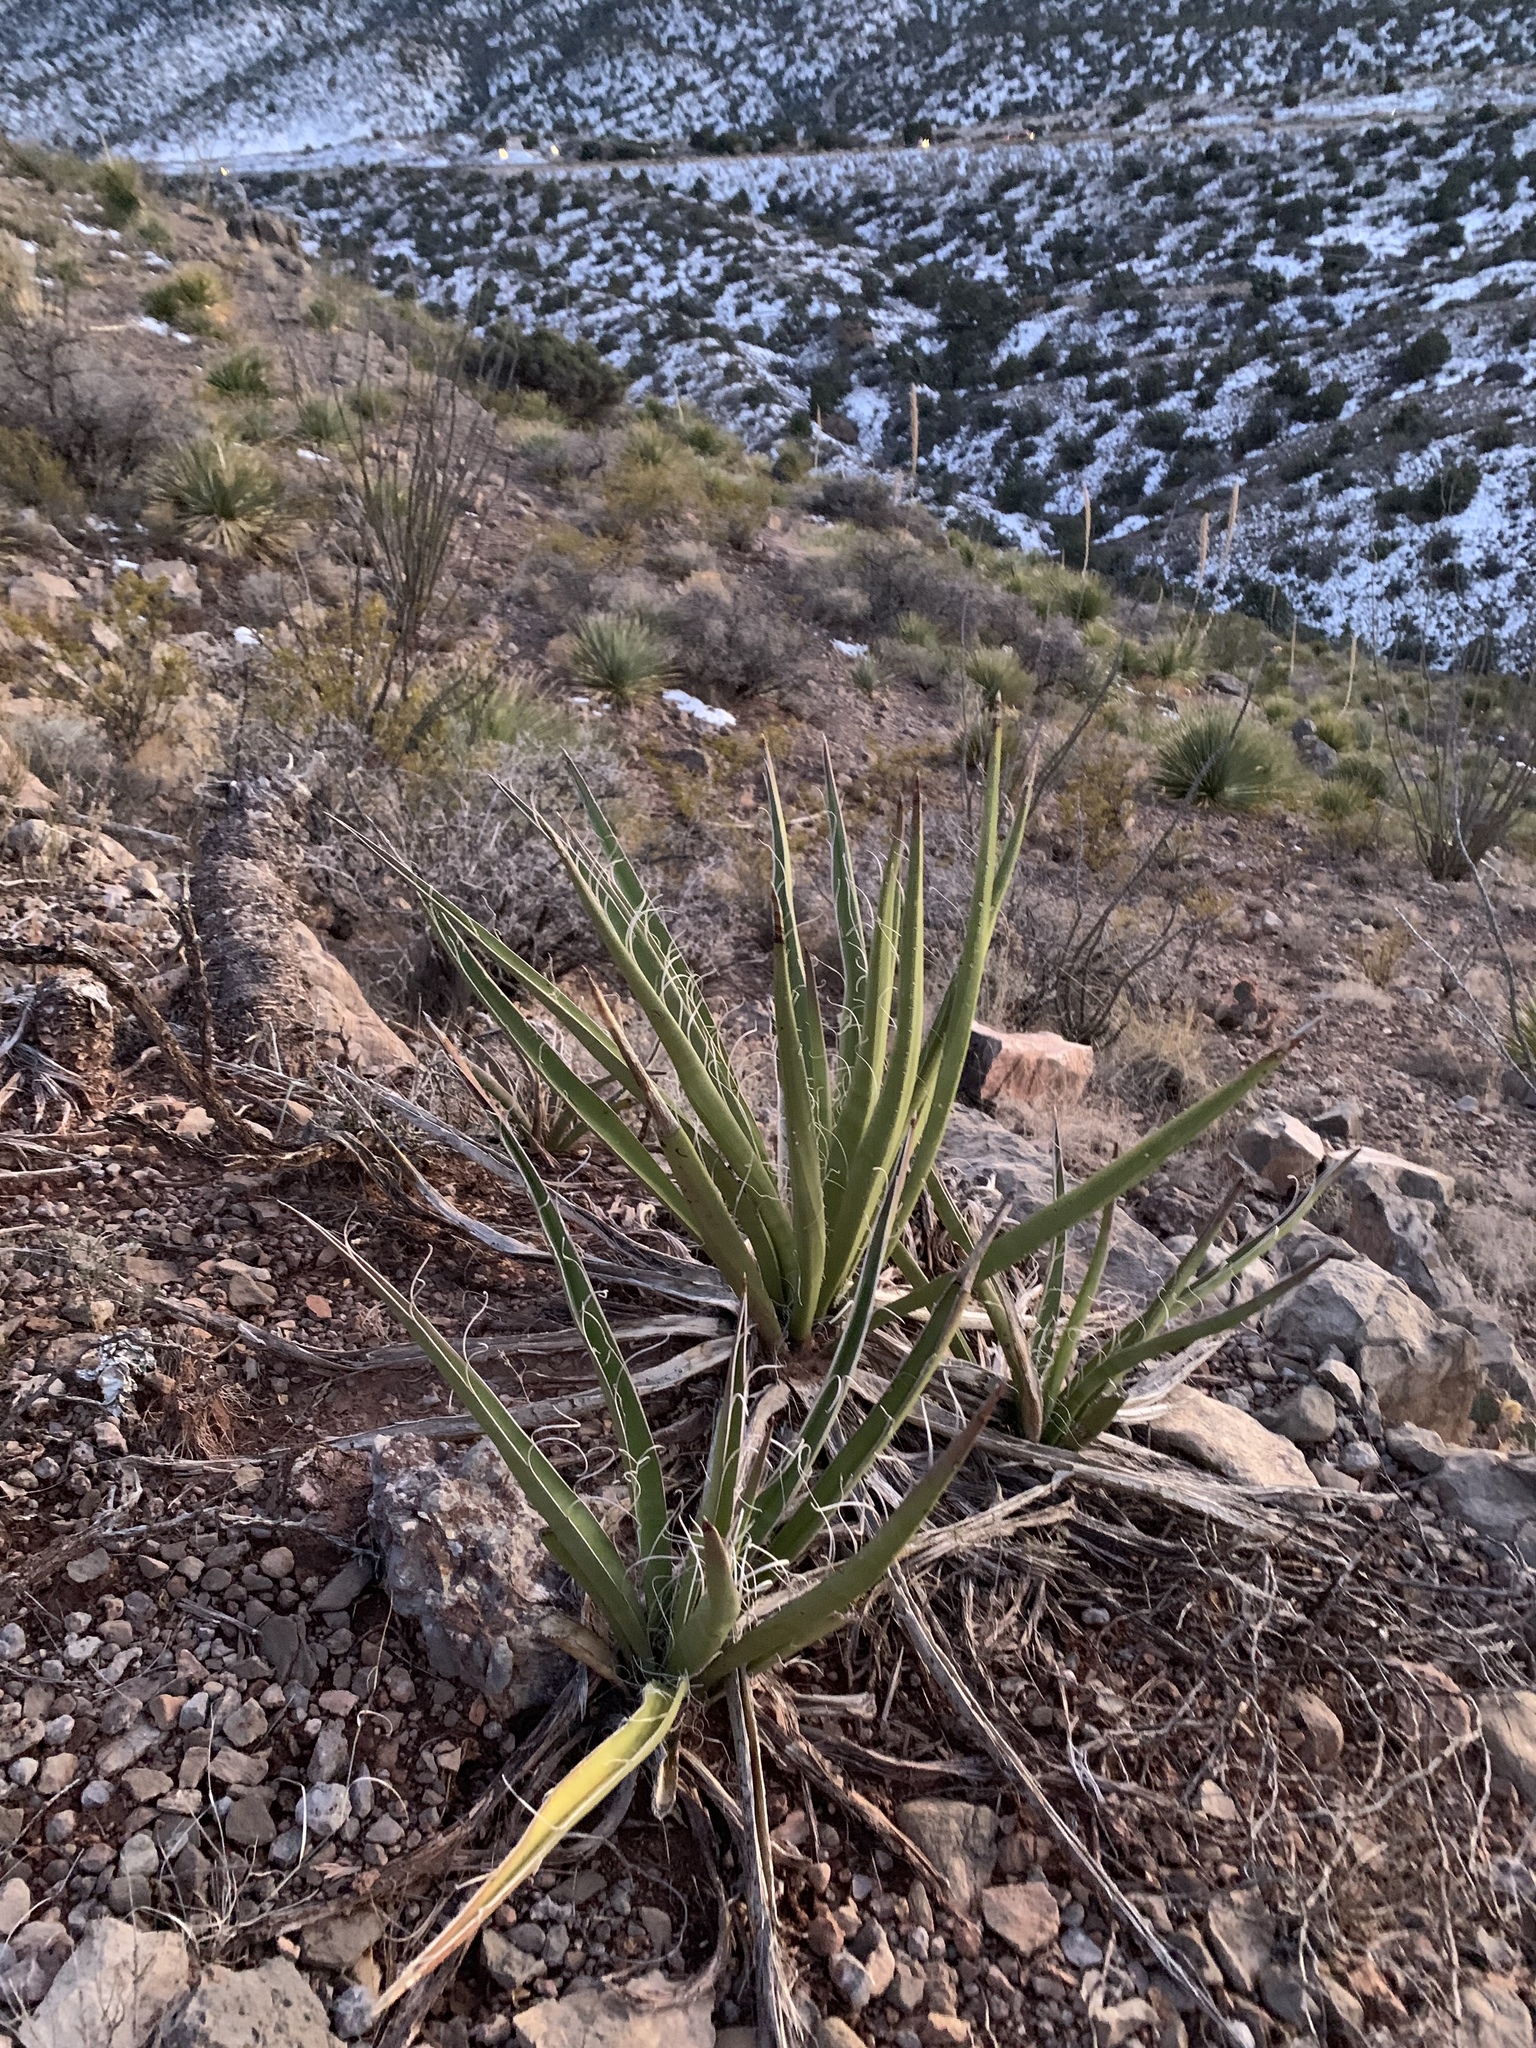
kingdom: Plantae
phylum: Tracheophyta
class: Liliopsida
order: Asparagales
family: Asparagaceae
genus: Yucca
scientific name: Yucca baccata
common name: Banana yucca
